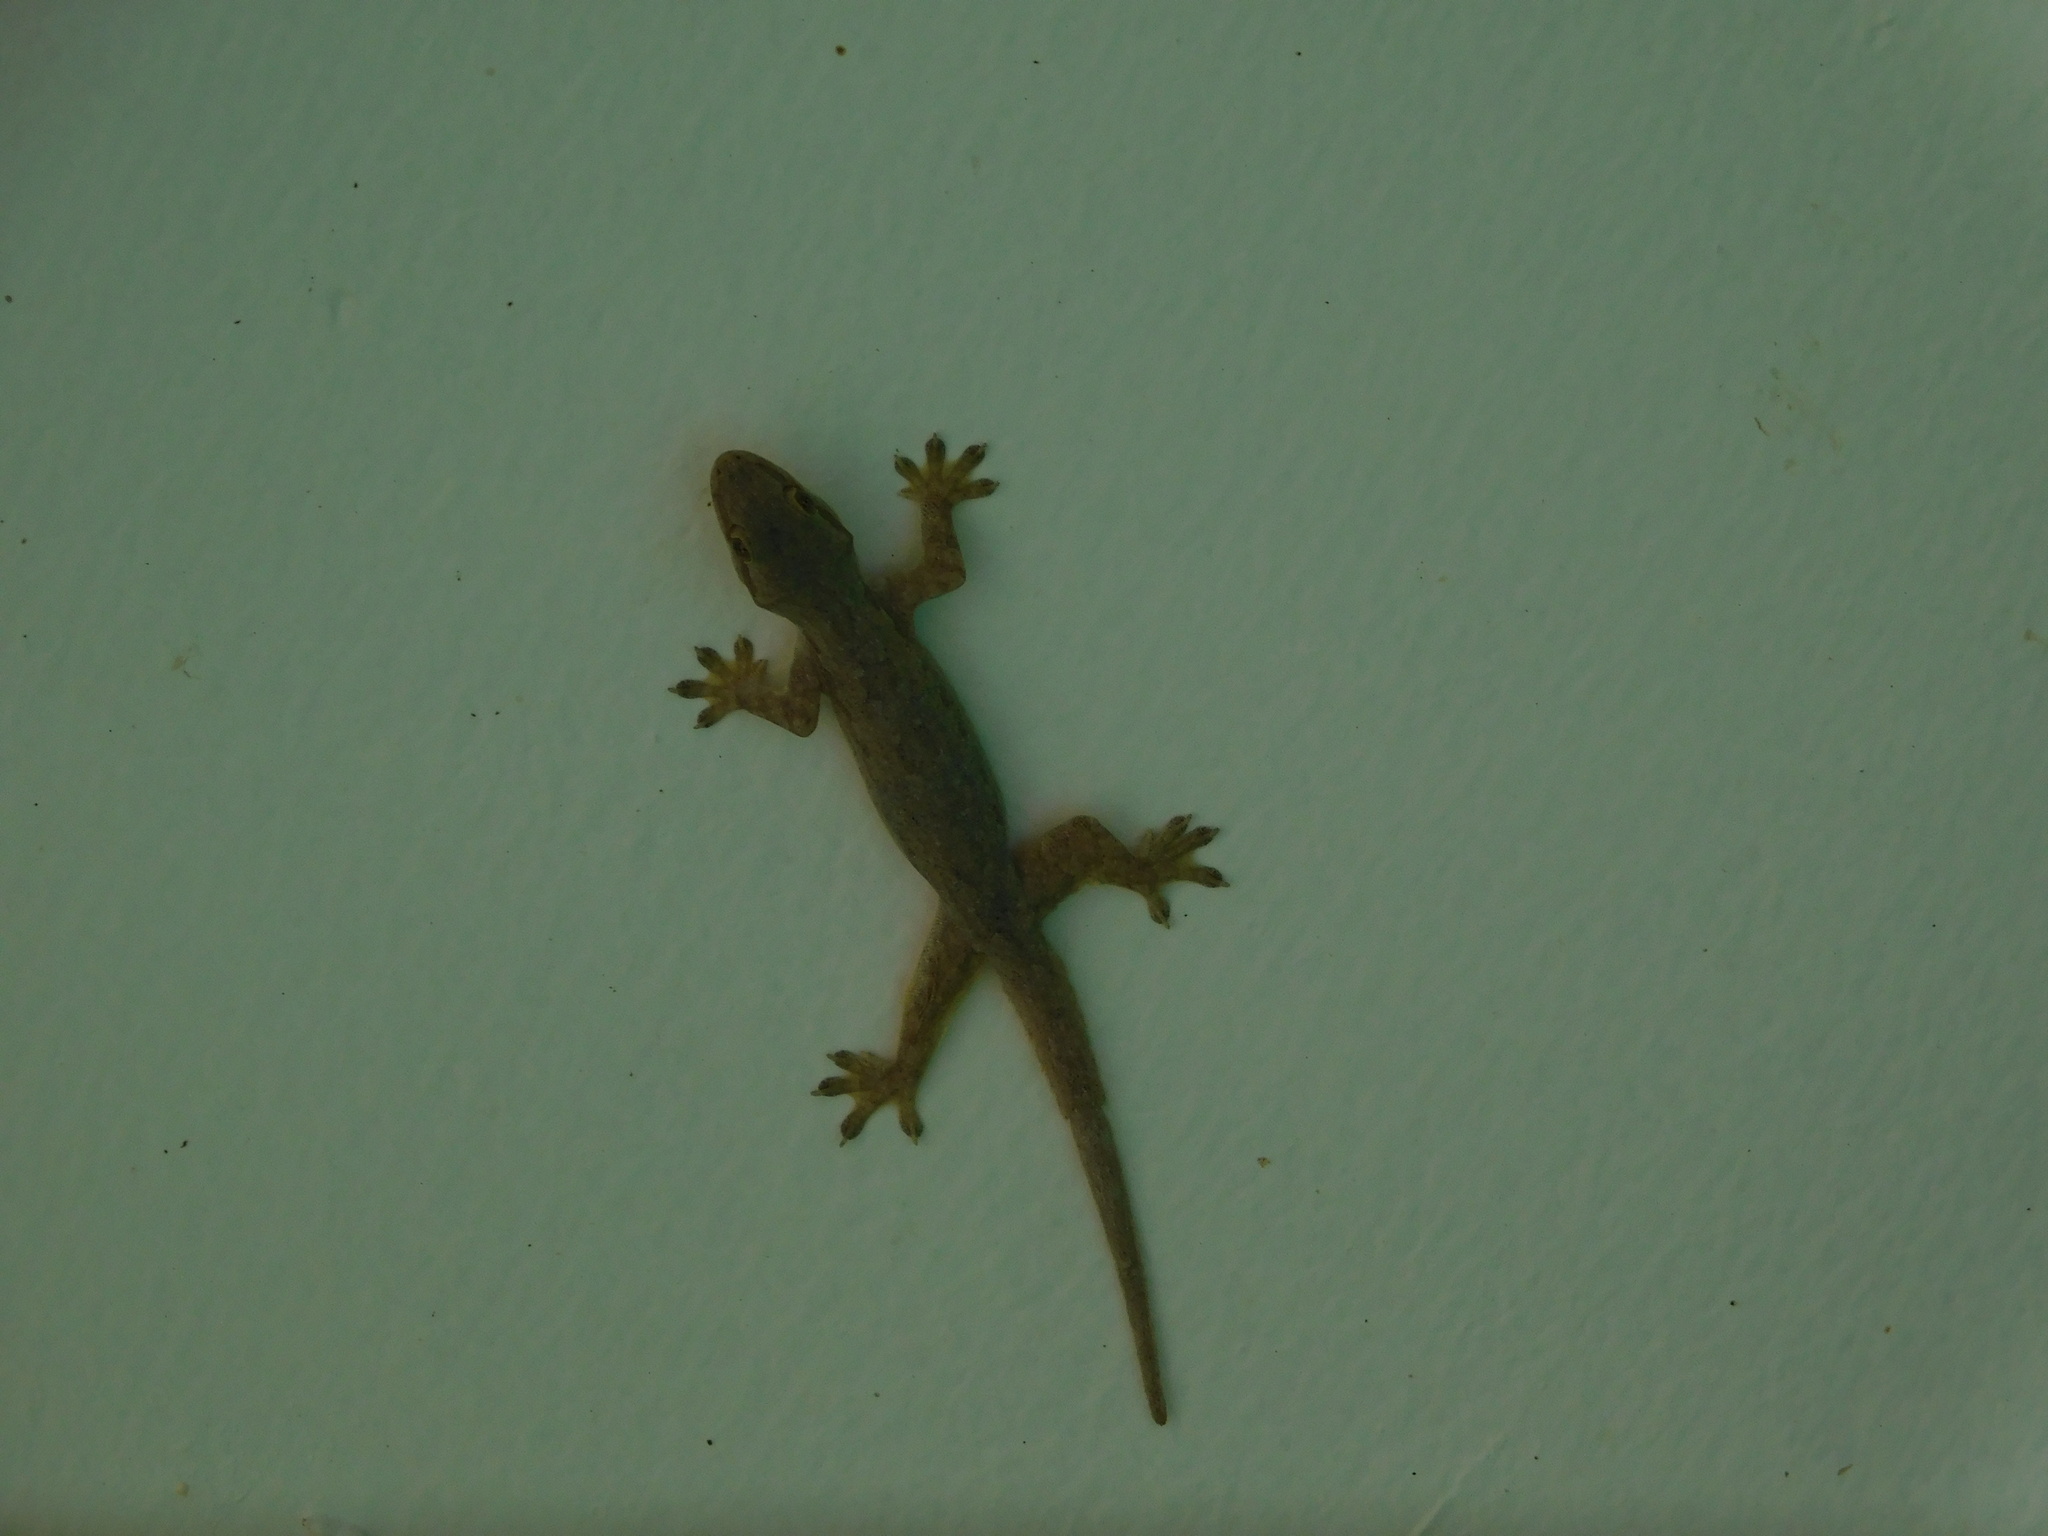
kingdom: Animalia
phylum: Chordata
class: Squamata
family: Gekkonidae
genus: Hemidactylus
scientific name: Hemidactylus platyurus
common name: Flat-tailed house gecko
